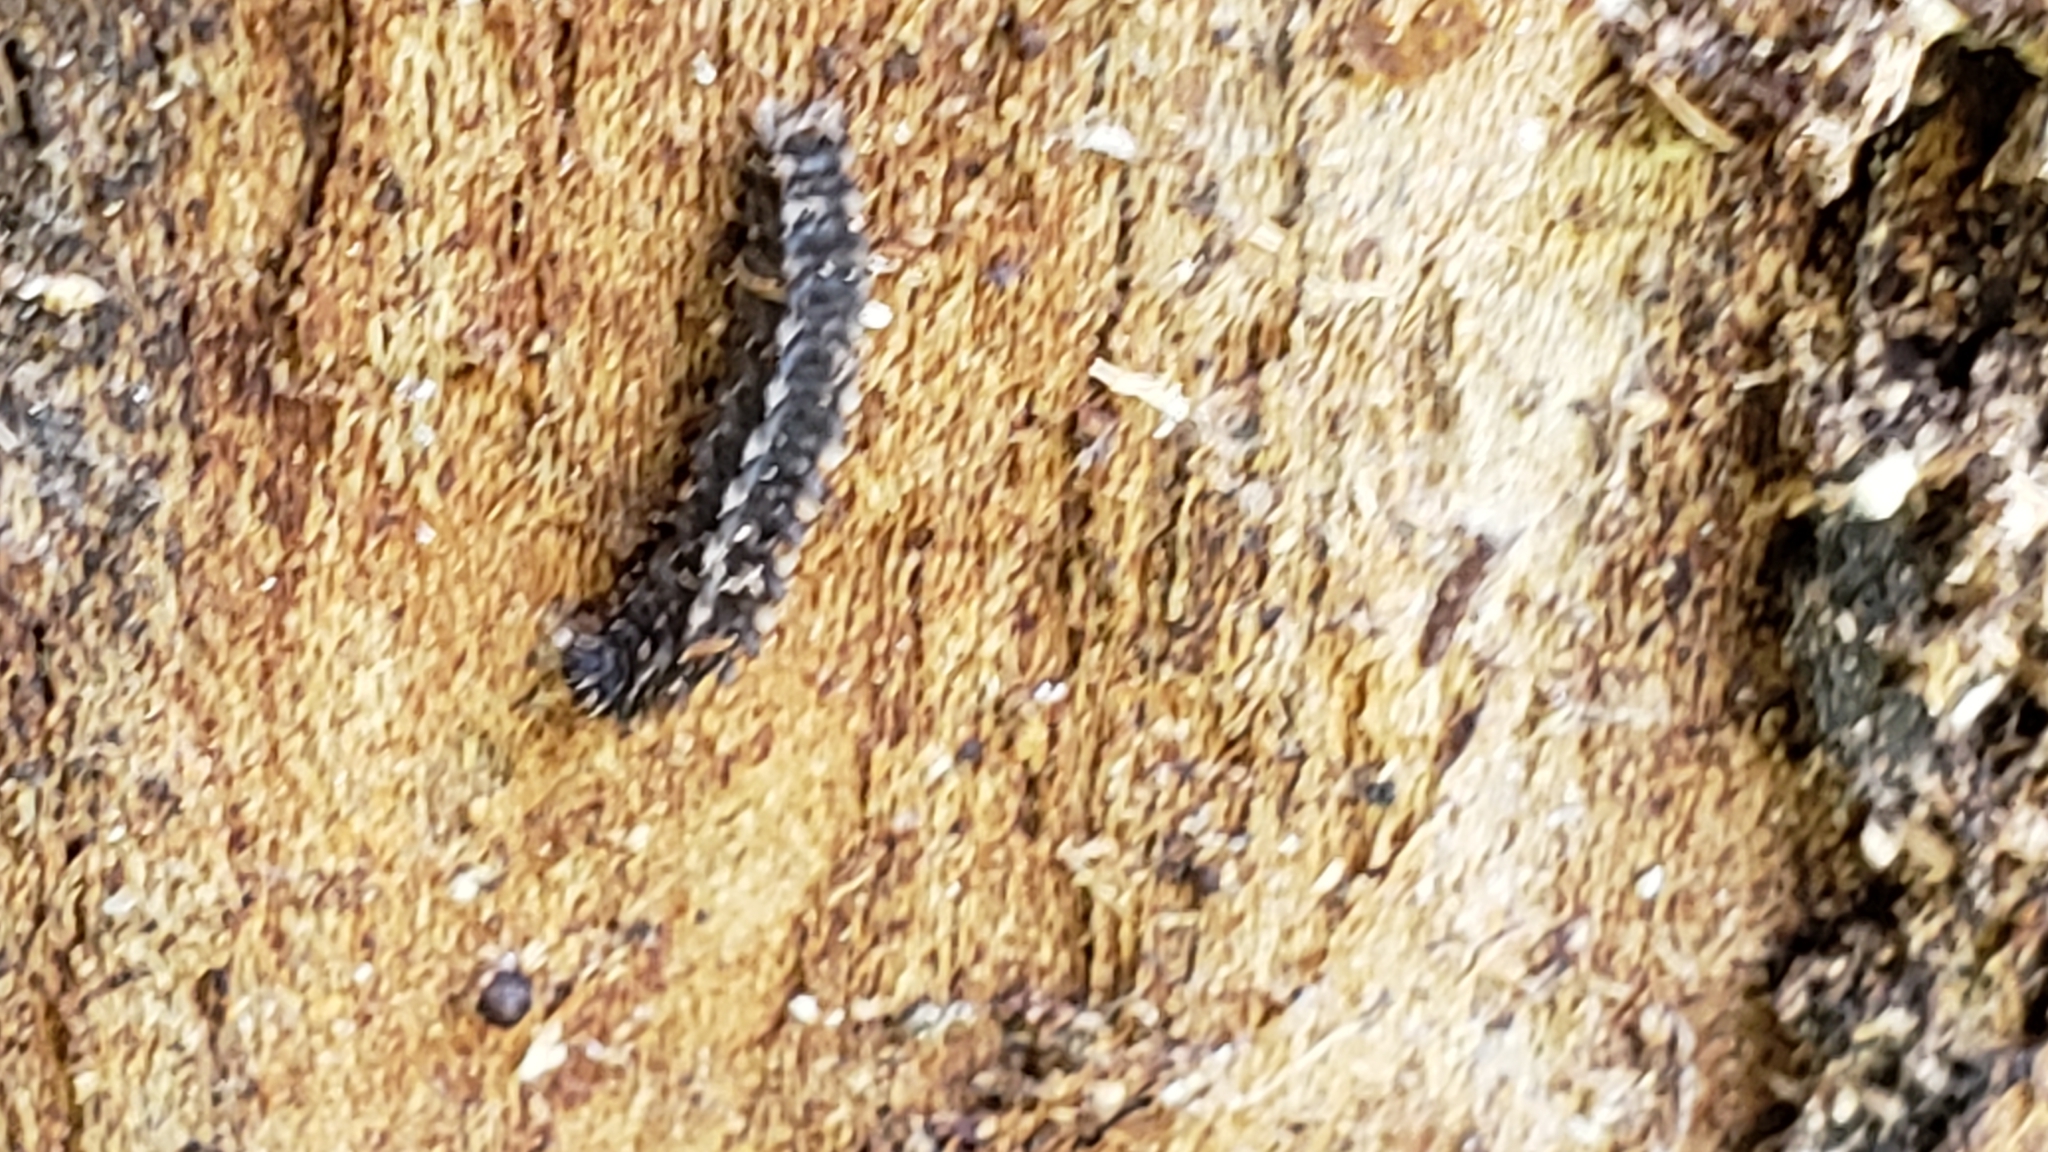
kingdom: Animalia
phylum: Arthropoda
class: Insecta
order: Lepidoptera
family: Erebidae
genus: Idia
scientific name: Idia lubricalis
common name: Twin-striped tabby
